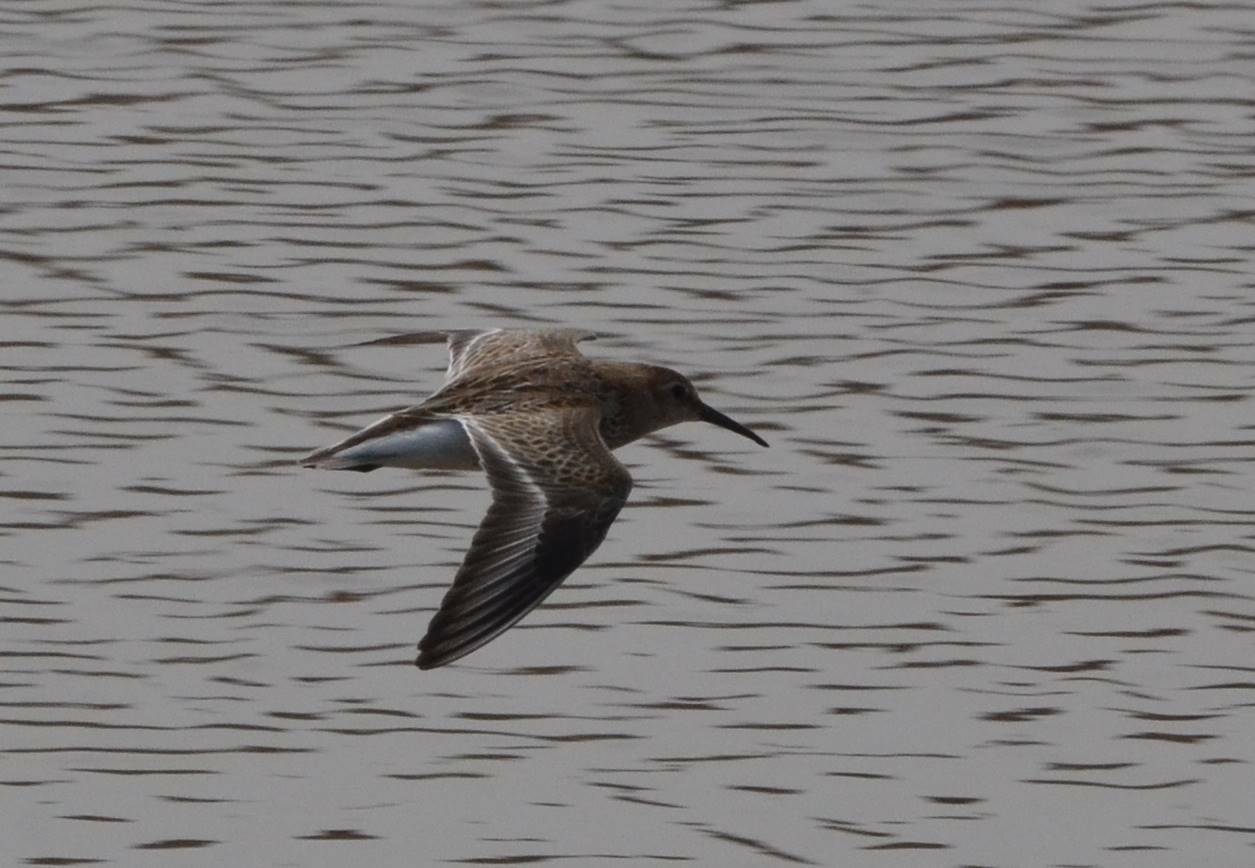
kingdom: Animalia
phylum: Chordata
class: Aves
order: Charadriiformes
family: Scolopacidae
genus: Calidris
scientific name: Calidris alpina
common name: Dunlin
